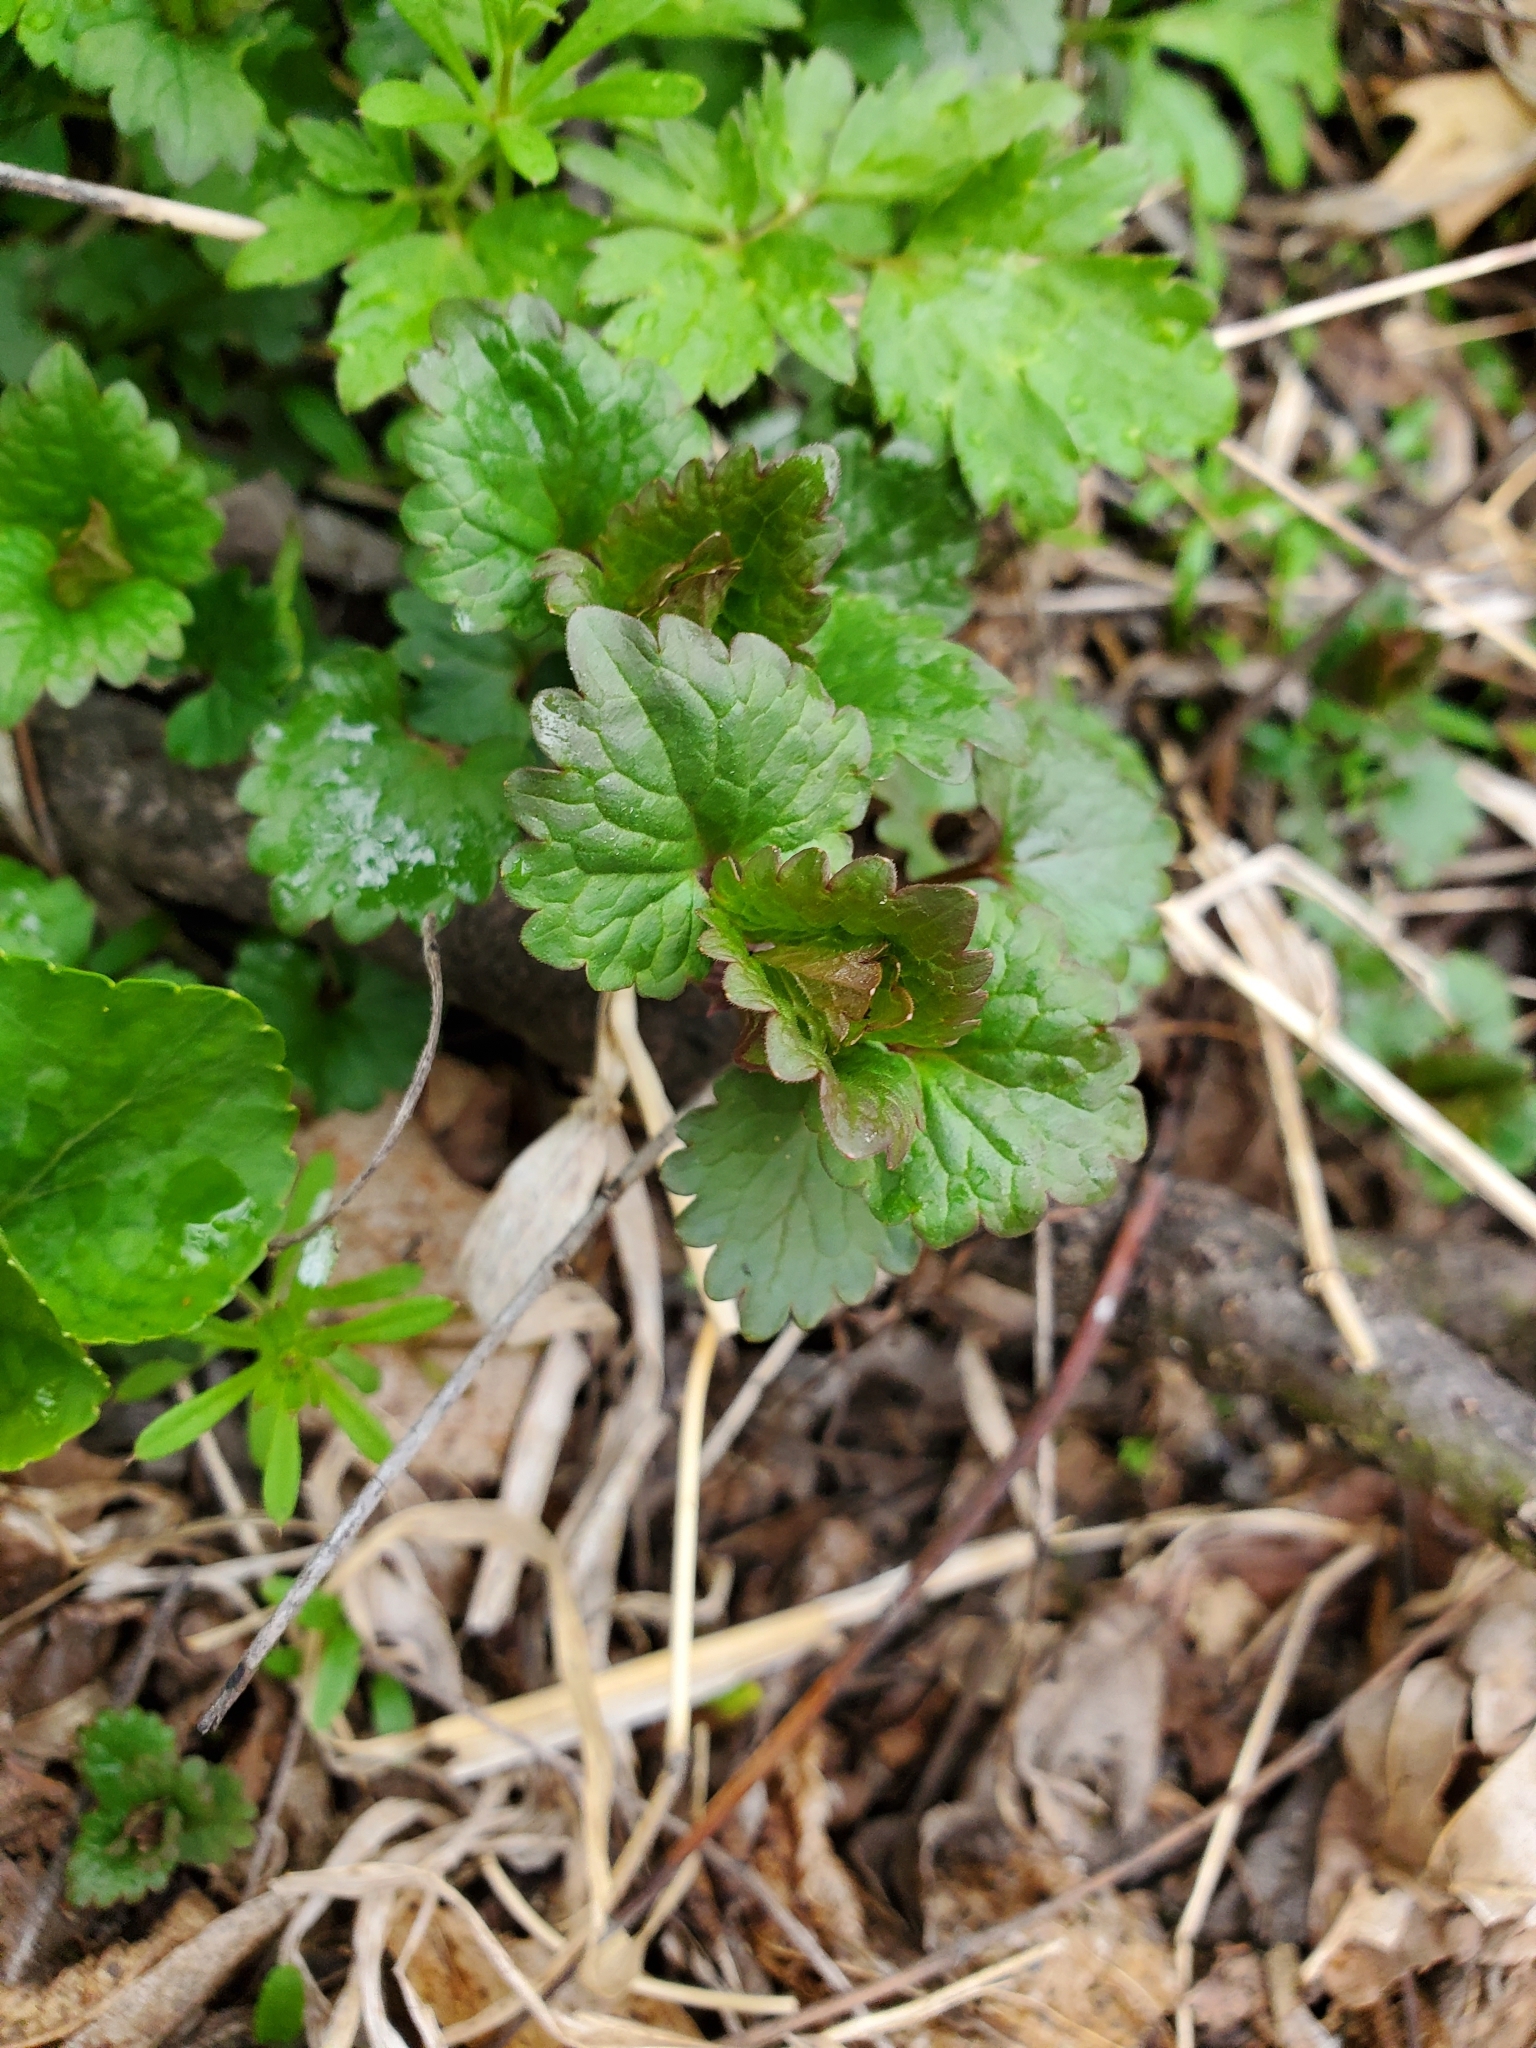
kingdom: Plantae
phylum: Tracheophyta
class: Magnoliopsida
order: Lamiales
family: Lamiaceae
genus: Glechoma
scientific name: Glechoma hederacea
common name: Ground ivy
